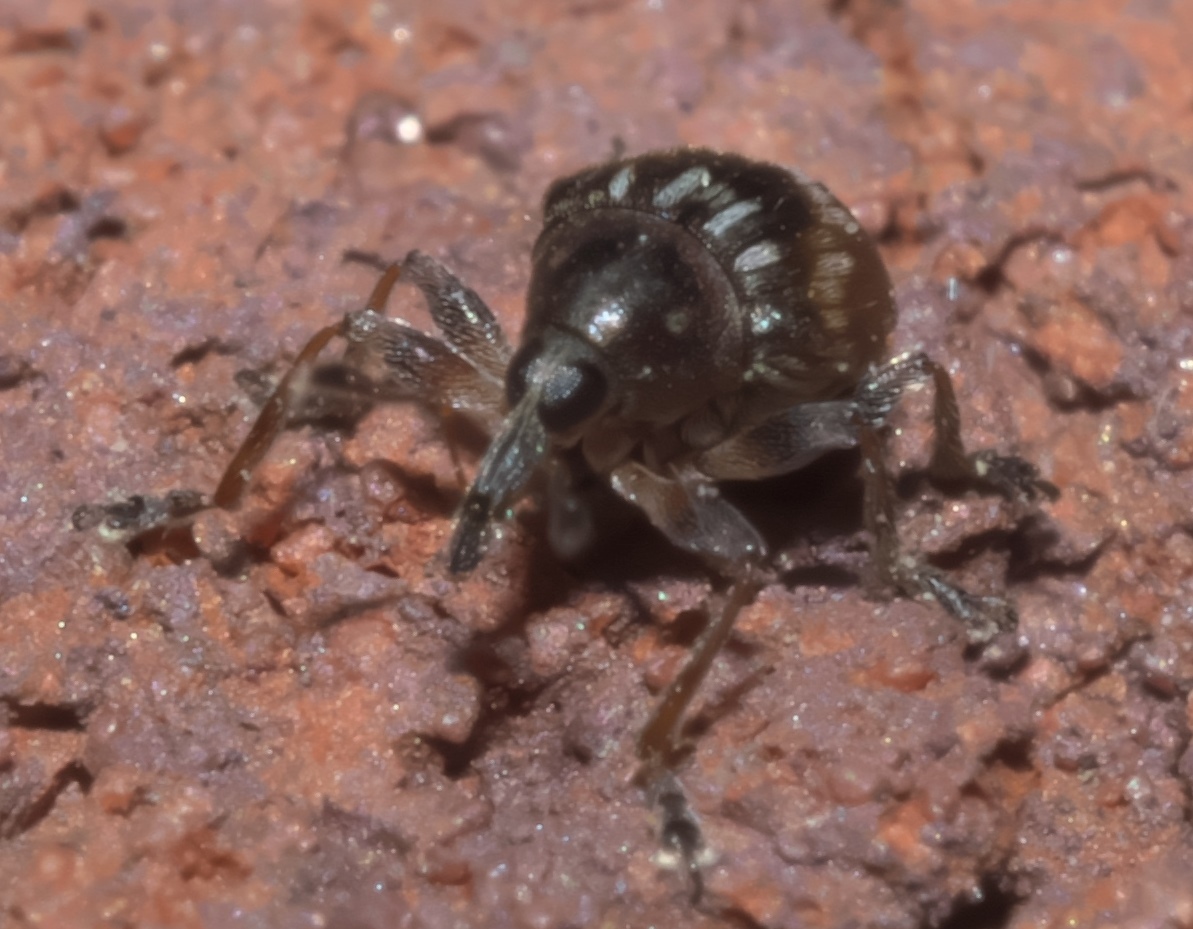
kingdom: Animalia
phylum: Arthropoda
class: Insecta
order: Coleoptera
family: Brentidae
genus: Nanodactylus
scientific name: Nanodactylus
